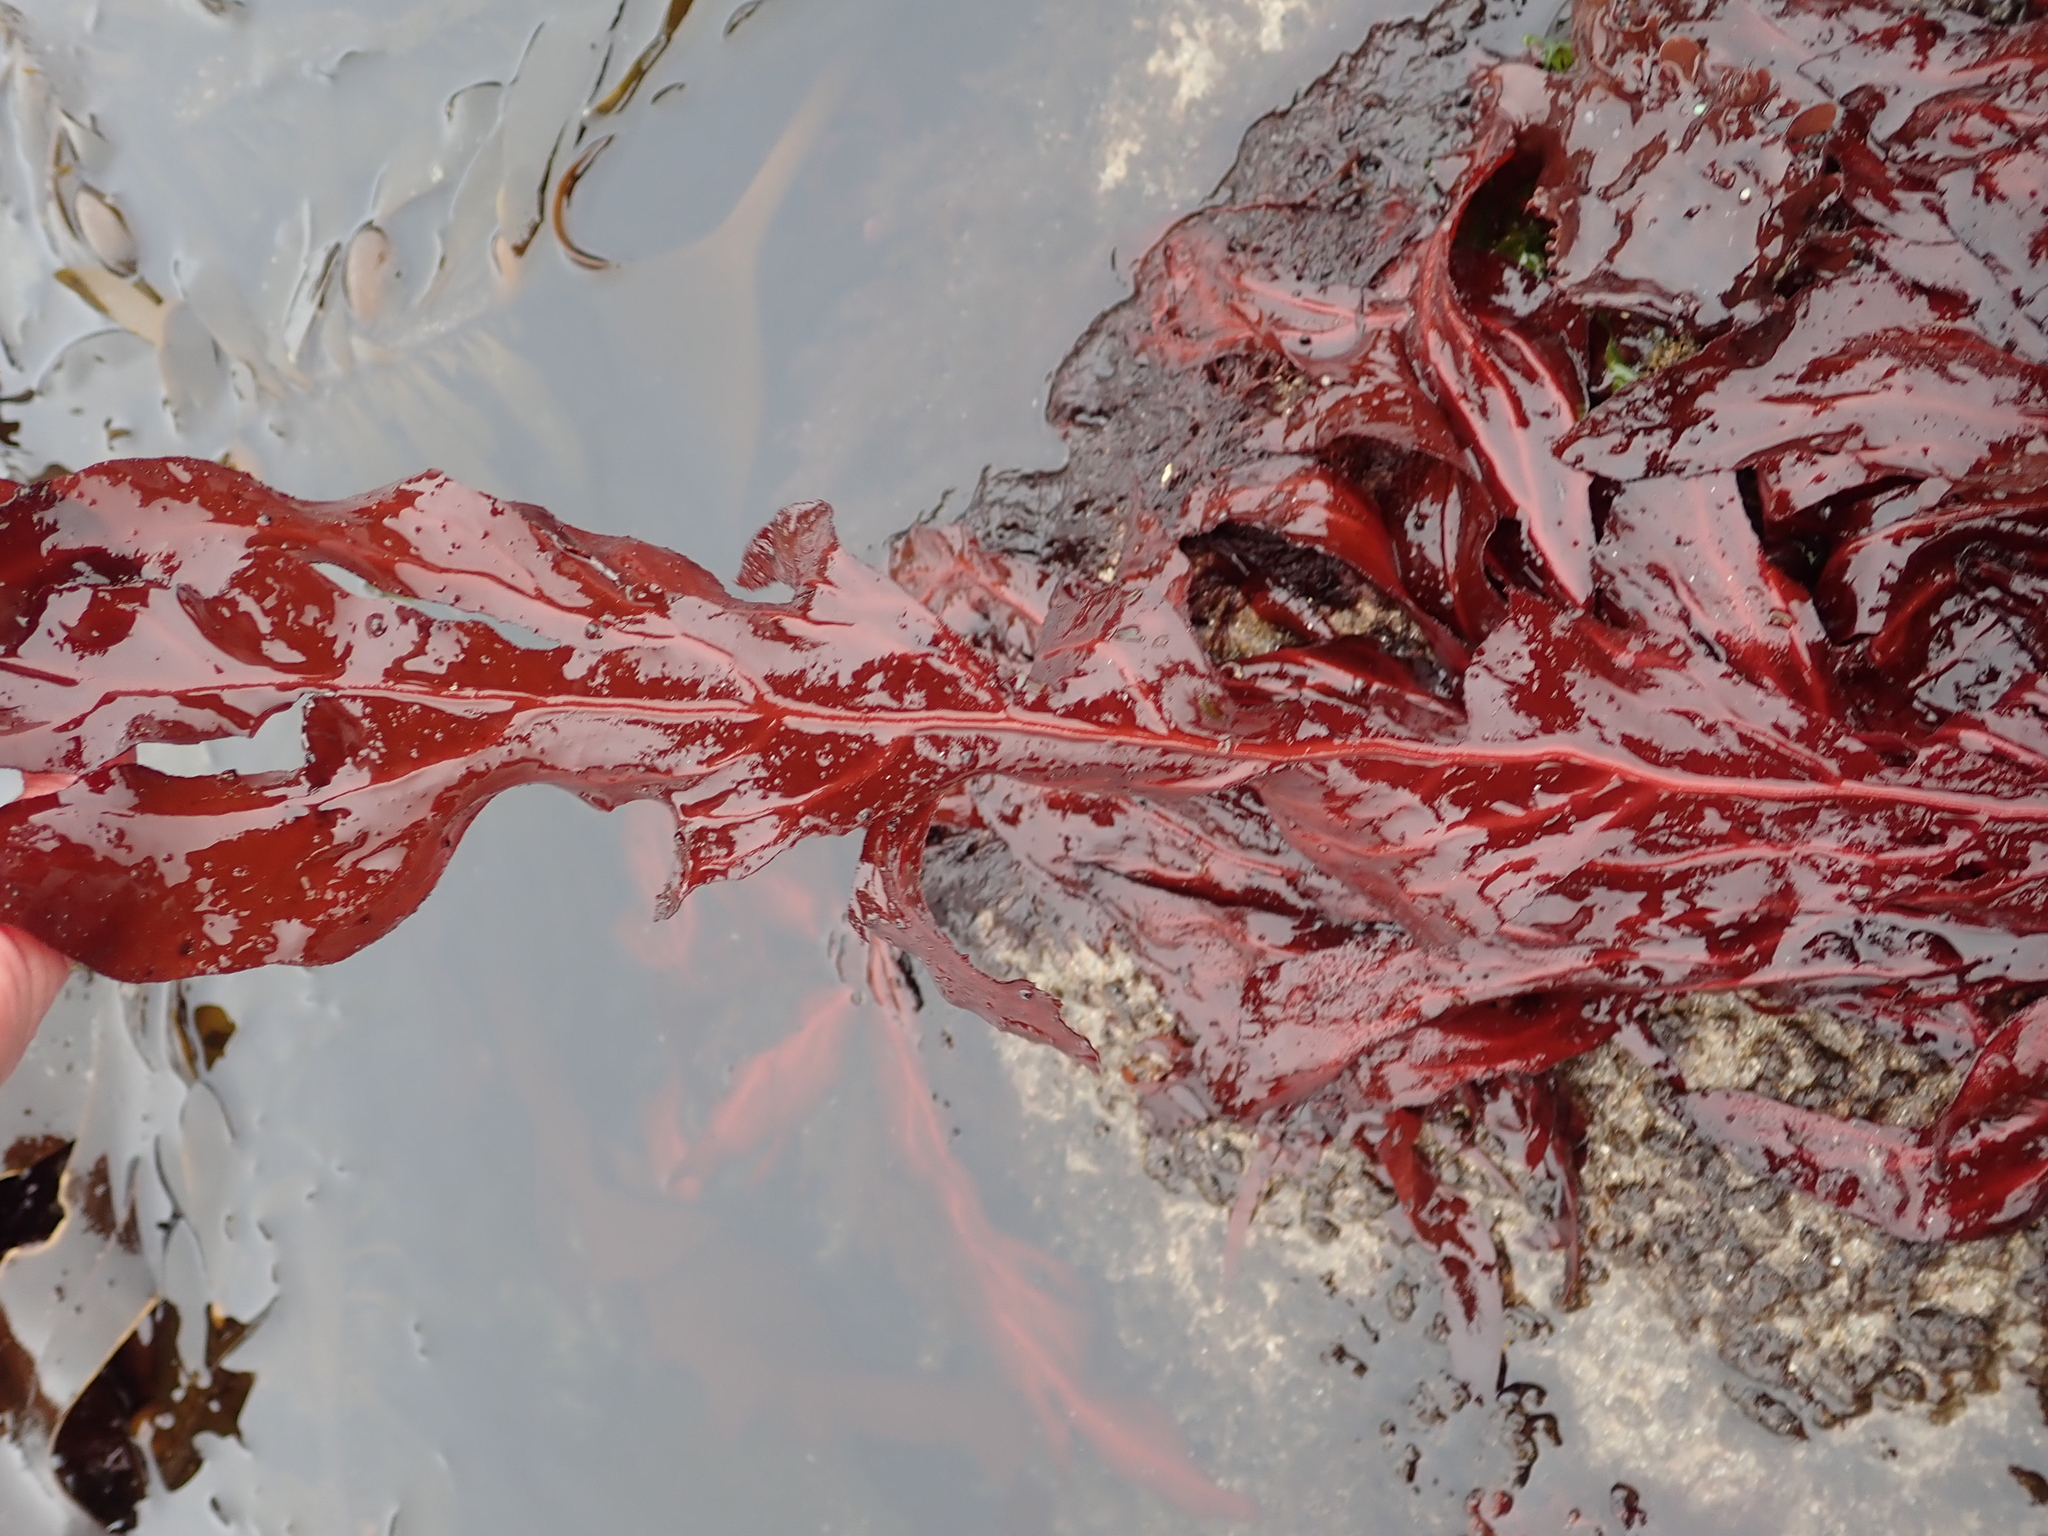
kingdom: Plantae
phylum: Rhodophyta
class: Florideophyceae
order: Gigartinales
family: Kallymeniaceae
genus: Erythrophyllum
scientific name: Erythrophyllum delesserioides
